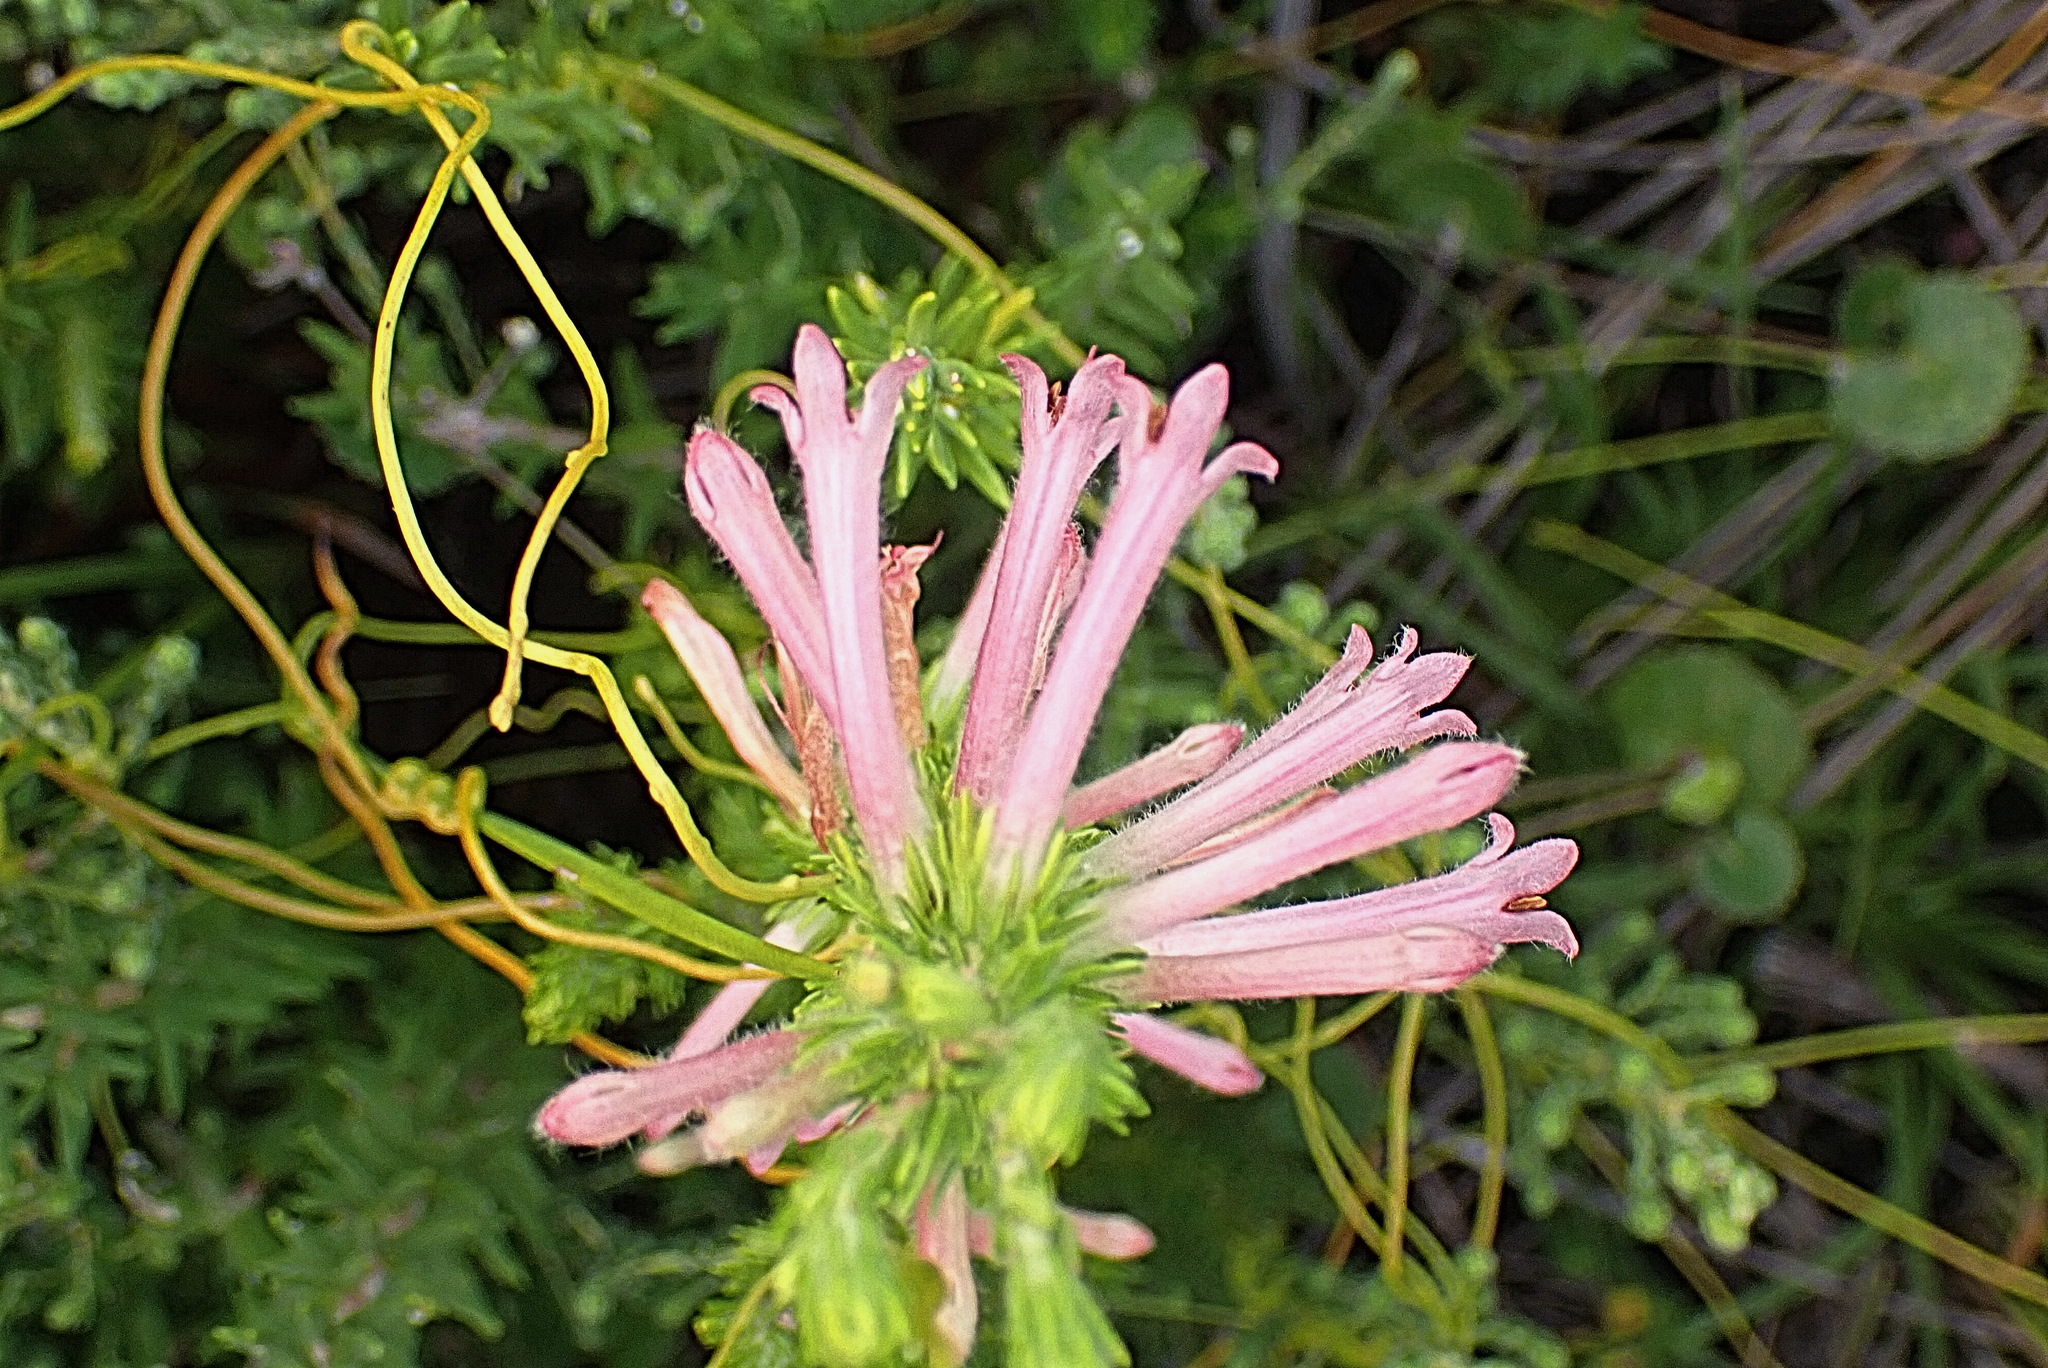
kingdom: Plantae
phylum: Tracheophyta
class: Magnoliopsida
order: Ericales
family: Ericaceae
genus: Erica
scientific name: Erica curviflora
